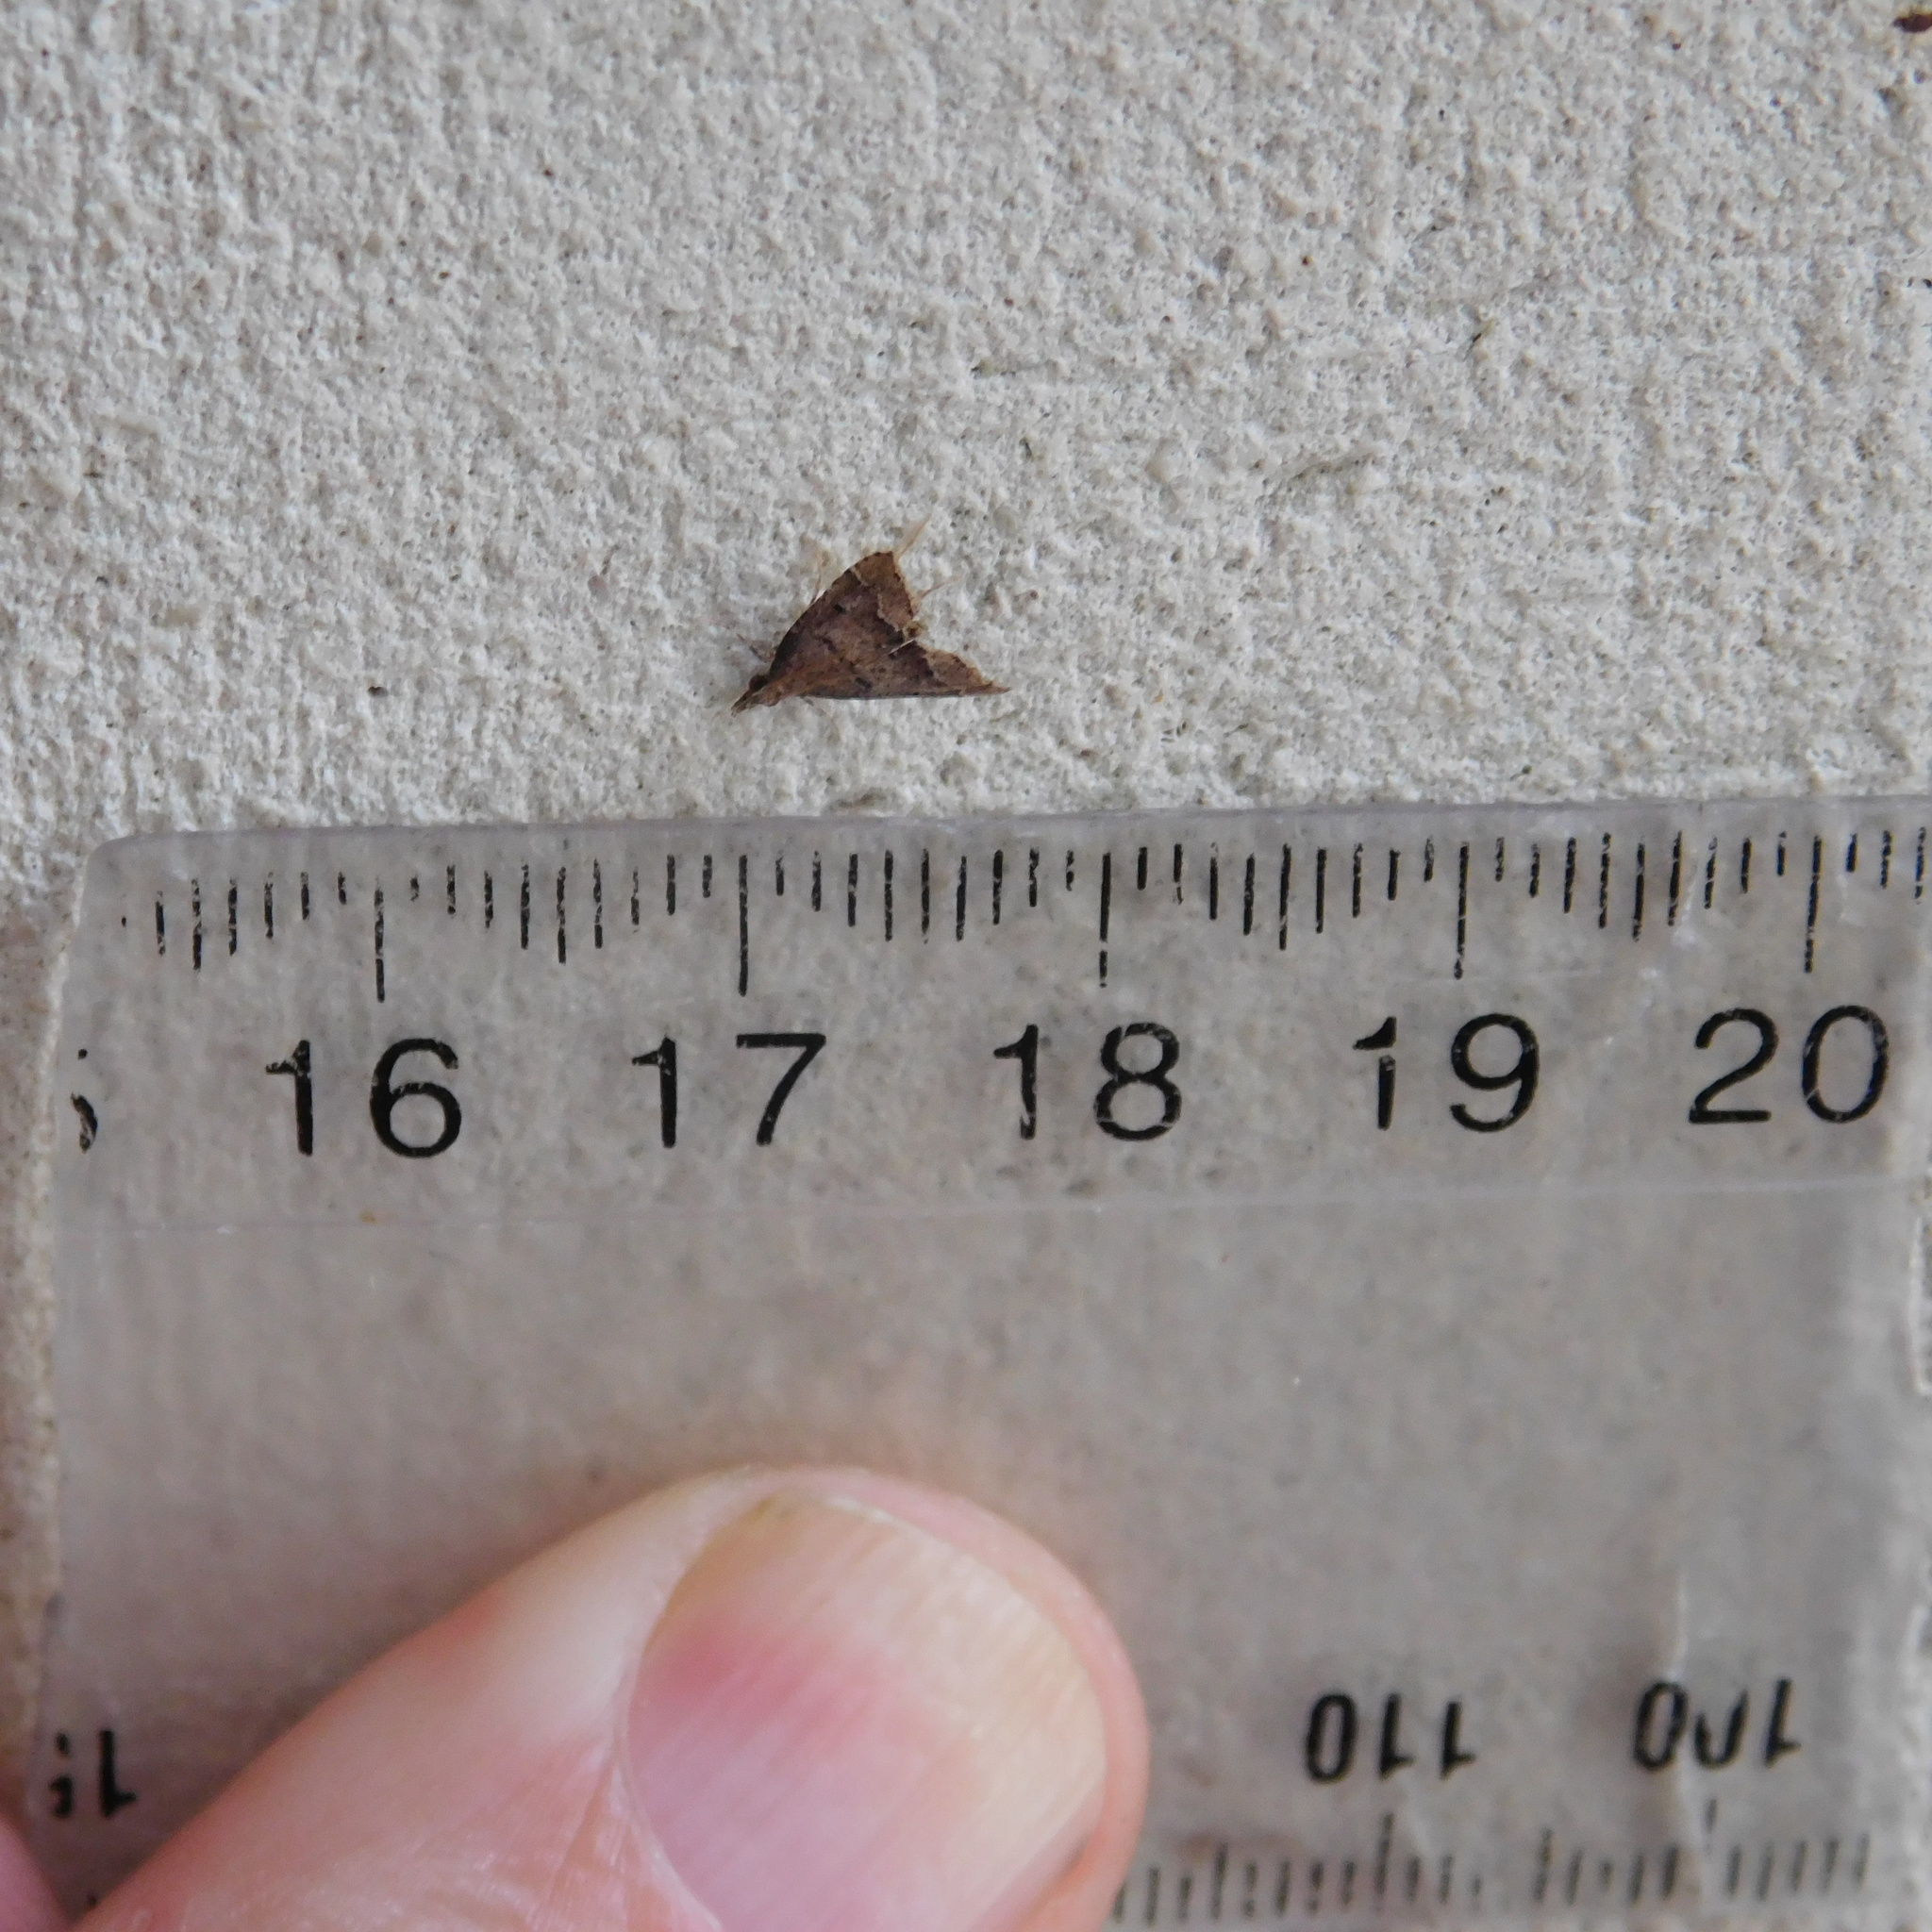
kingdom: Animalia
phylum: Arthropoda
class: Insecta
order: Lepidoptera
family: Crambidae
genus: Diplopseustis
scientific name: Diplopseustis perieresalis
